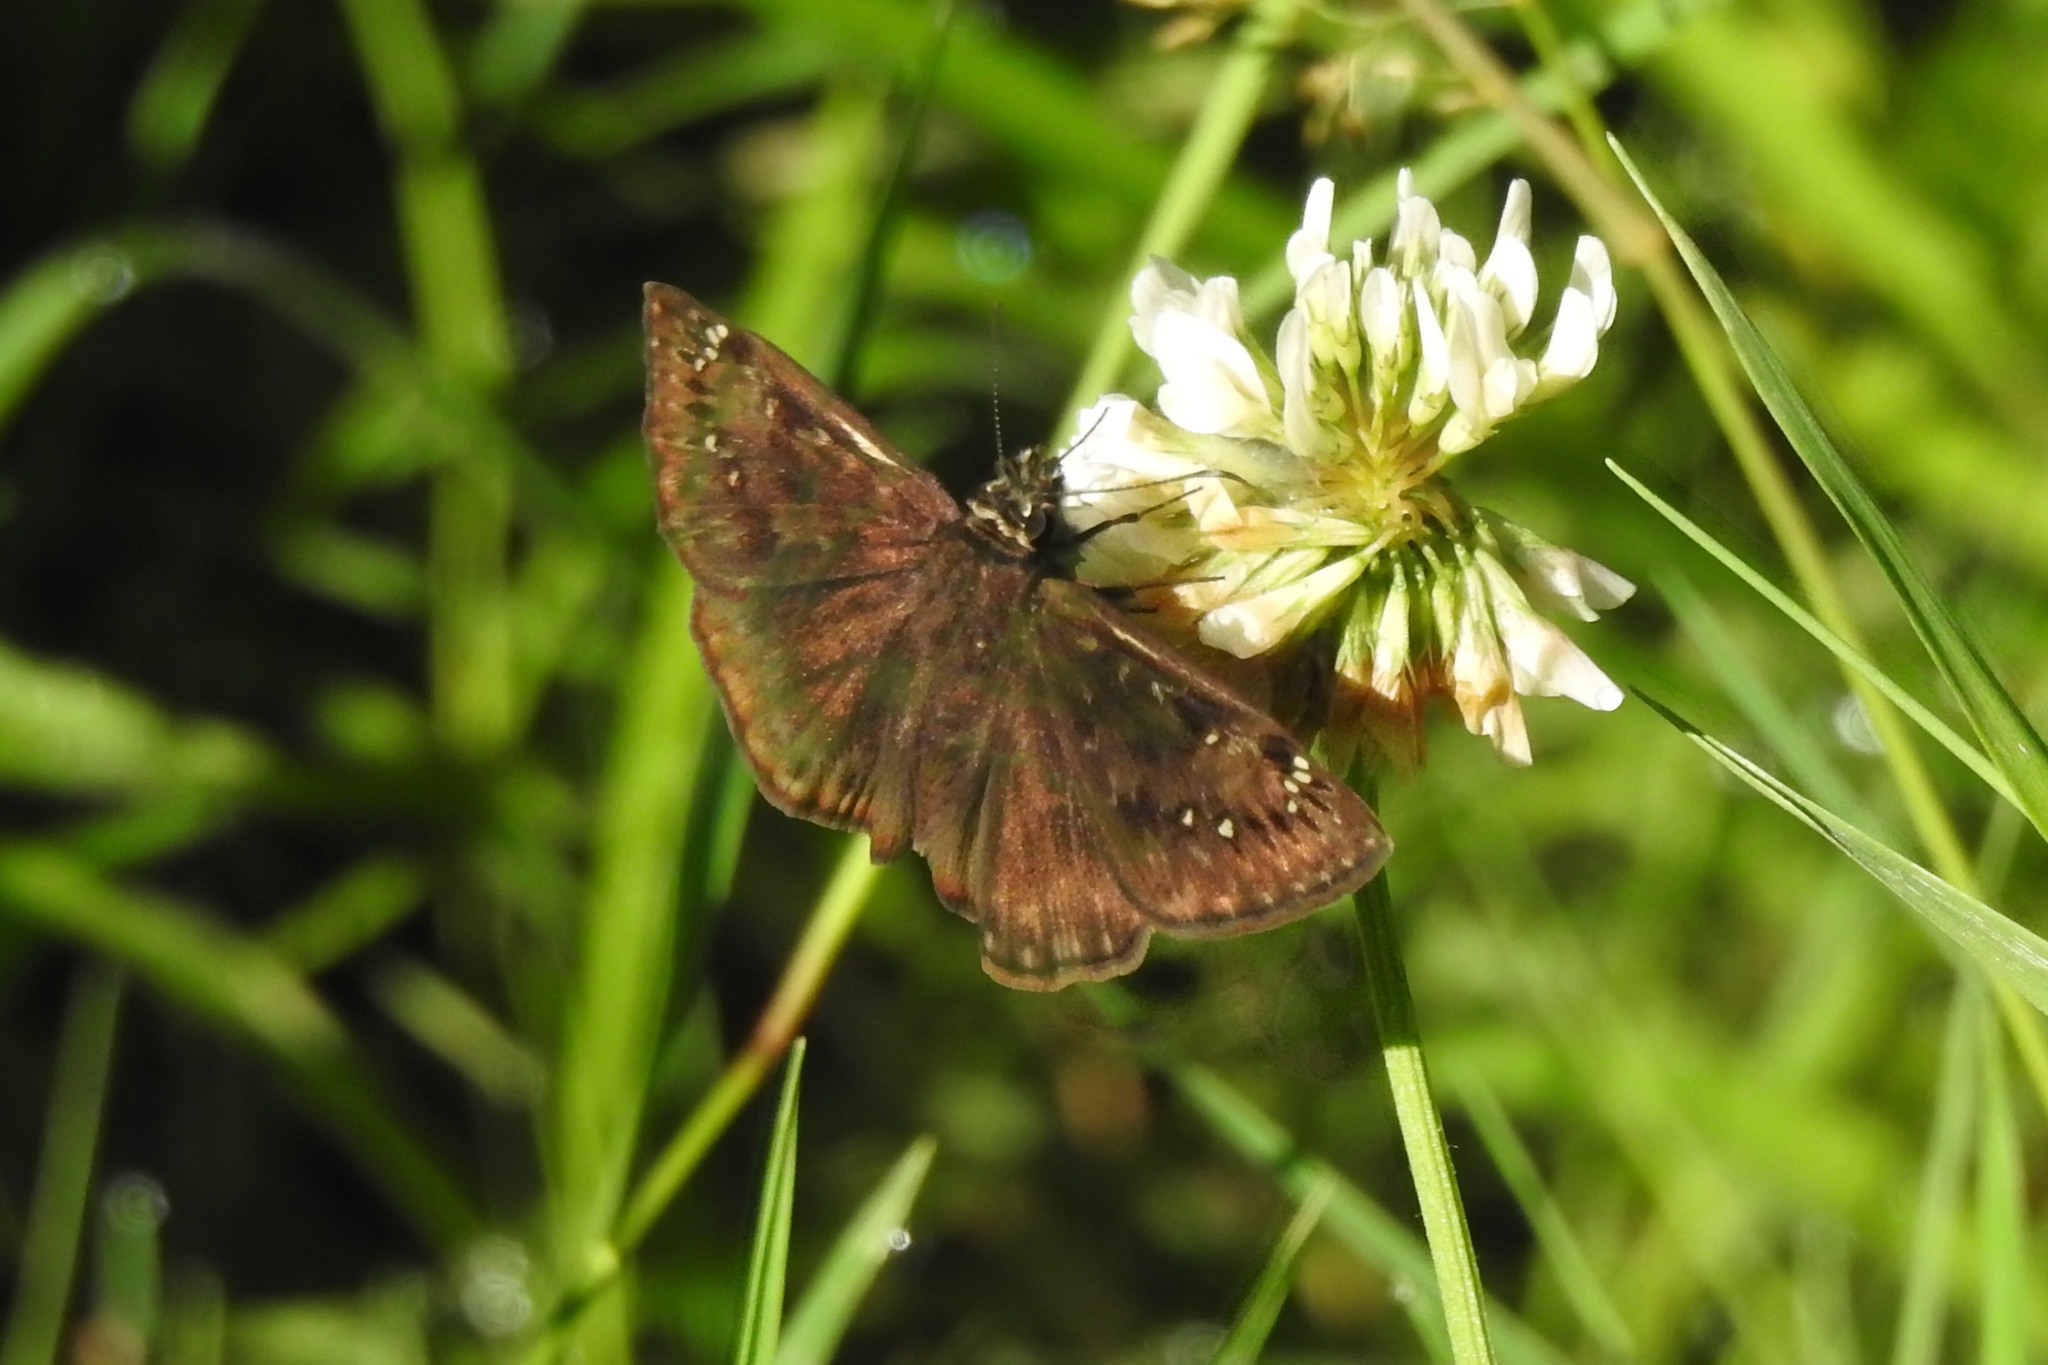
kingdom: Animalia
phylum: Arthropoda
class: Insecta
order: Lepidoptera
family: Hesperiidae
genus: Erynnis
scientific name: Erynnis horatius
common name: Horace's duskywing
